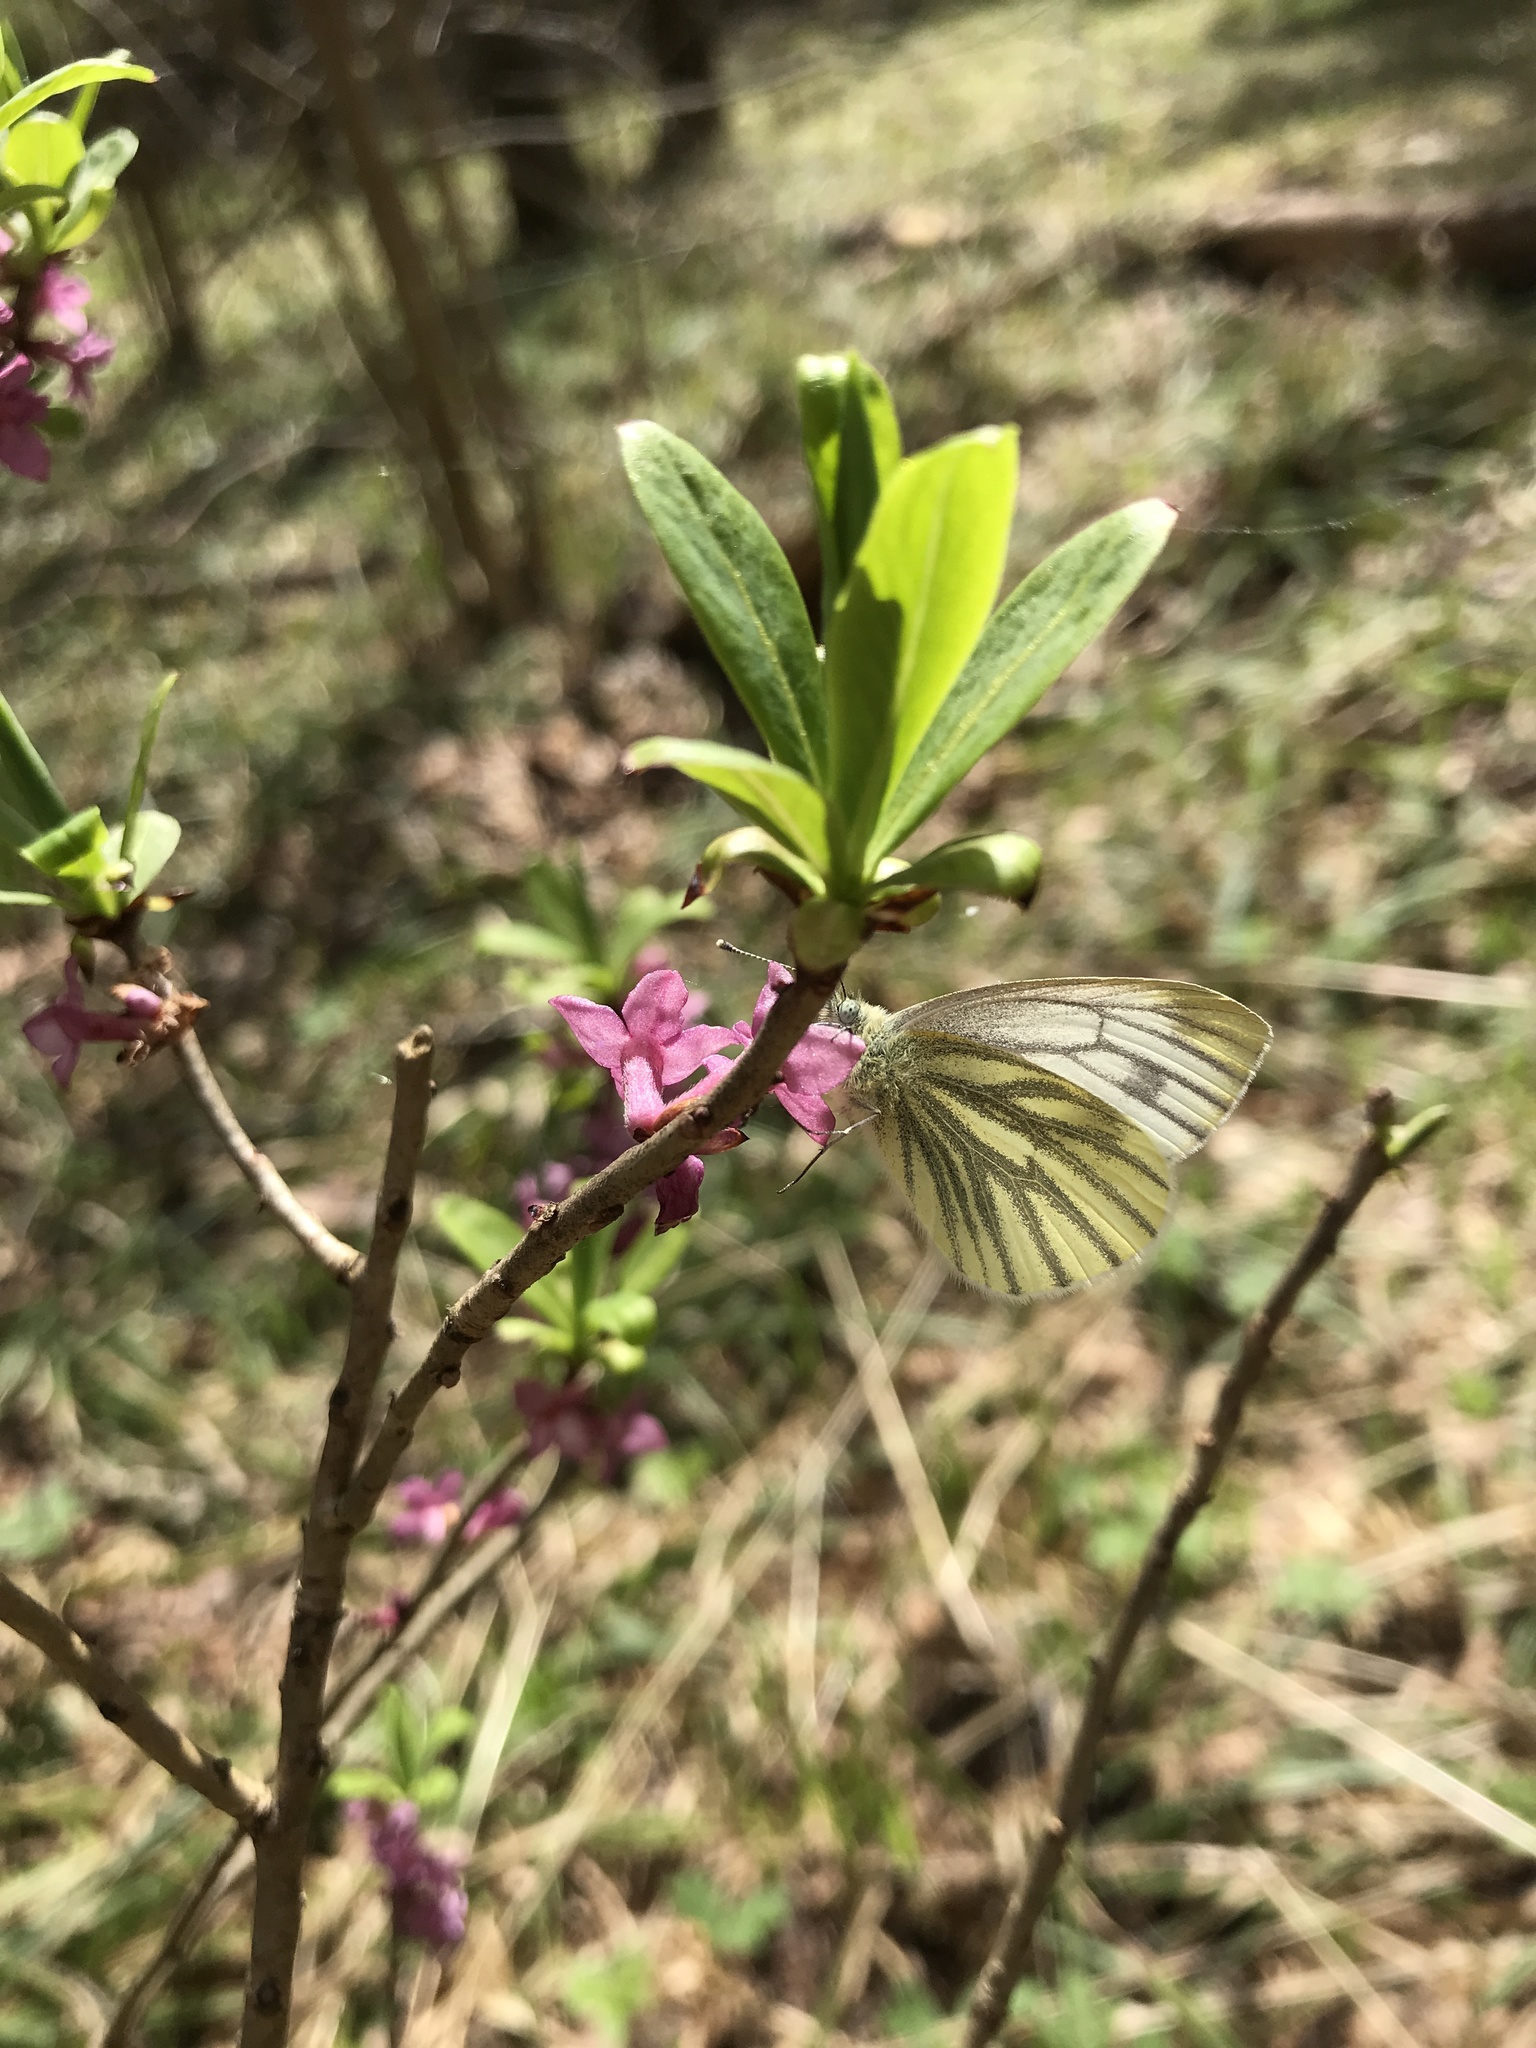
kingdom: Animalia
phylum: Arthropoda
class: Insecta
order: Lepidoptera
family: Pieridae
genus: Pieris
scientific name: Pieris napi
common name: Green-veined white
